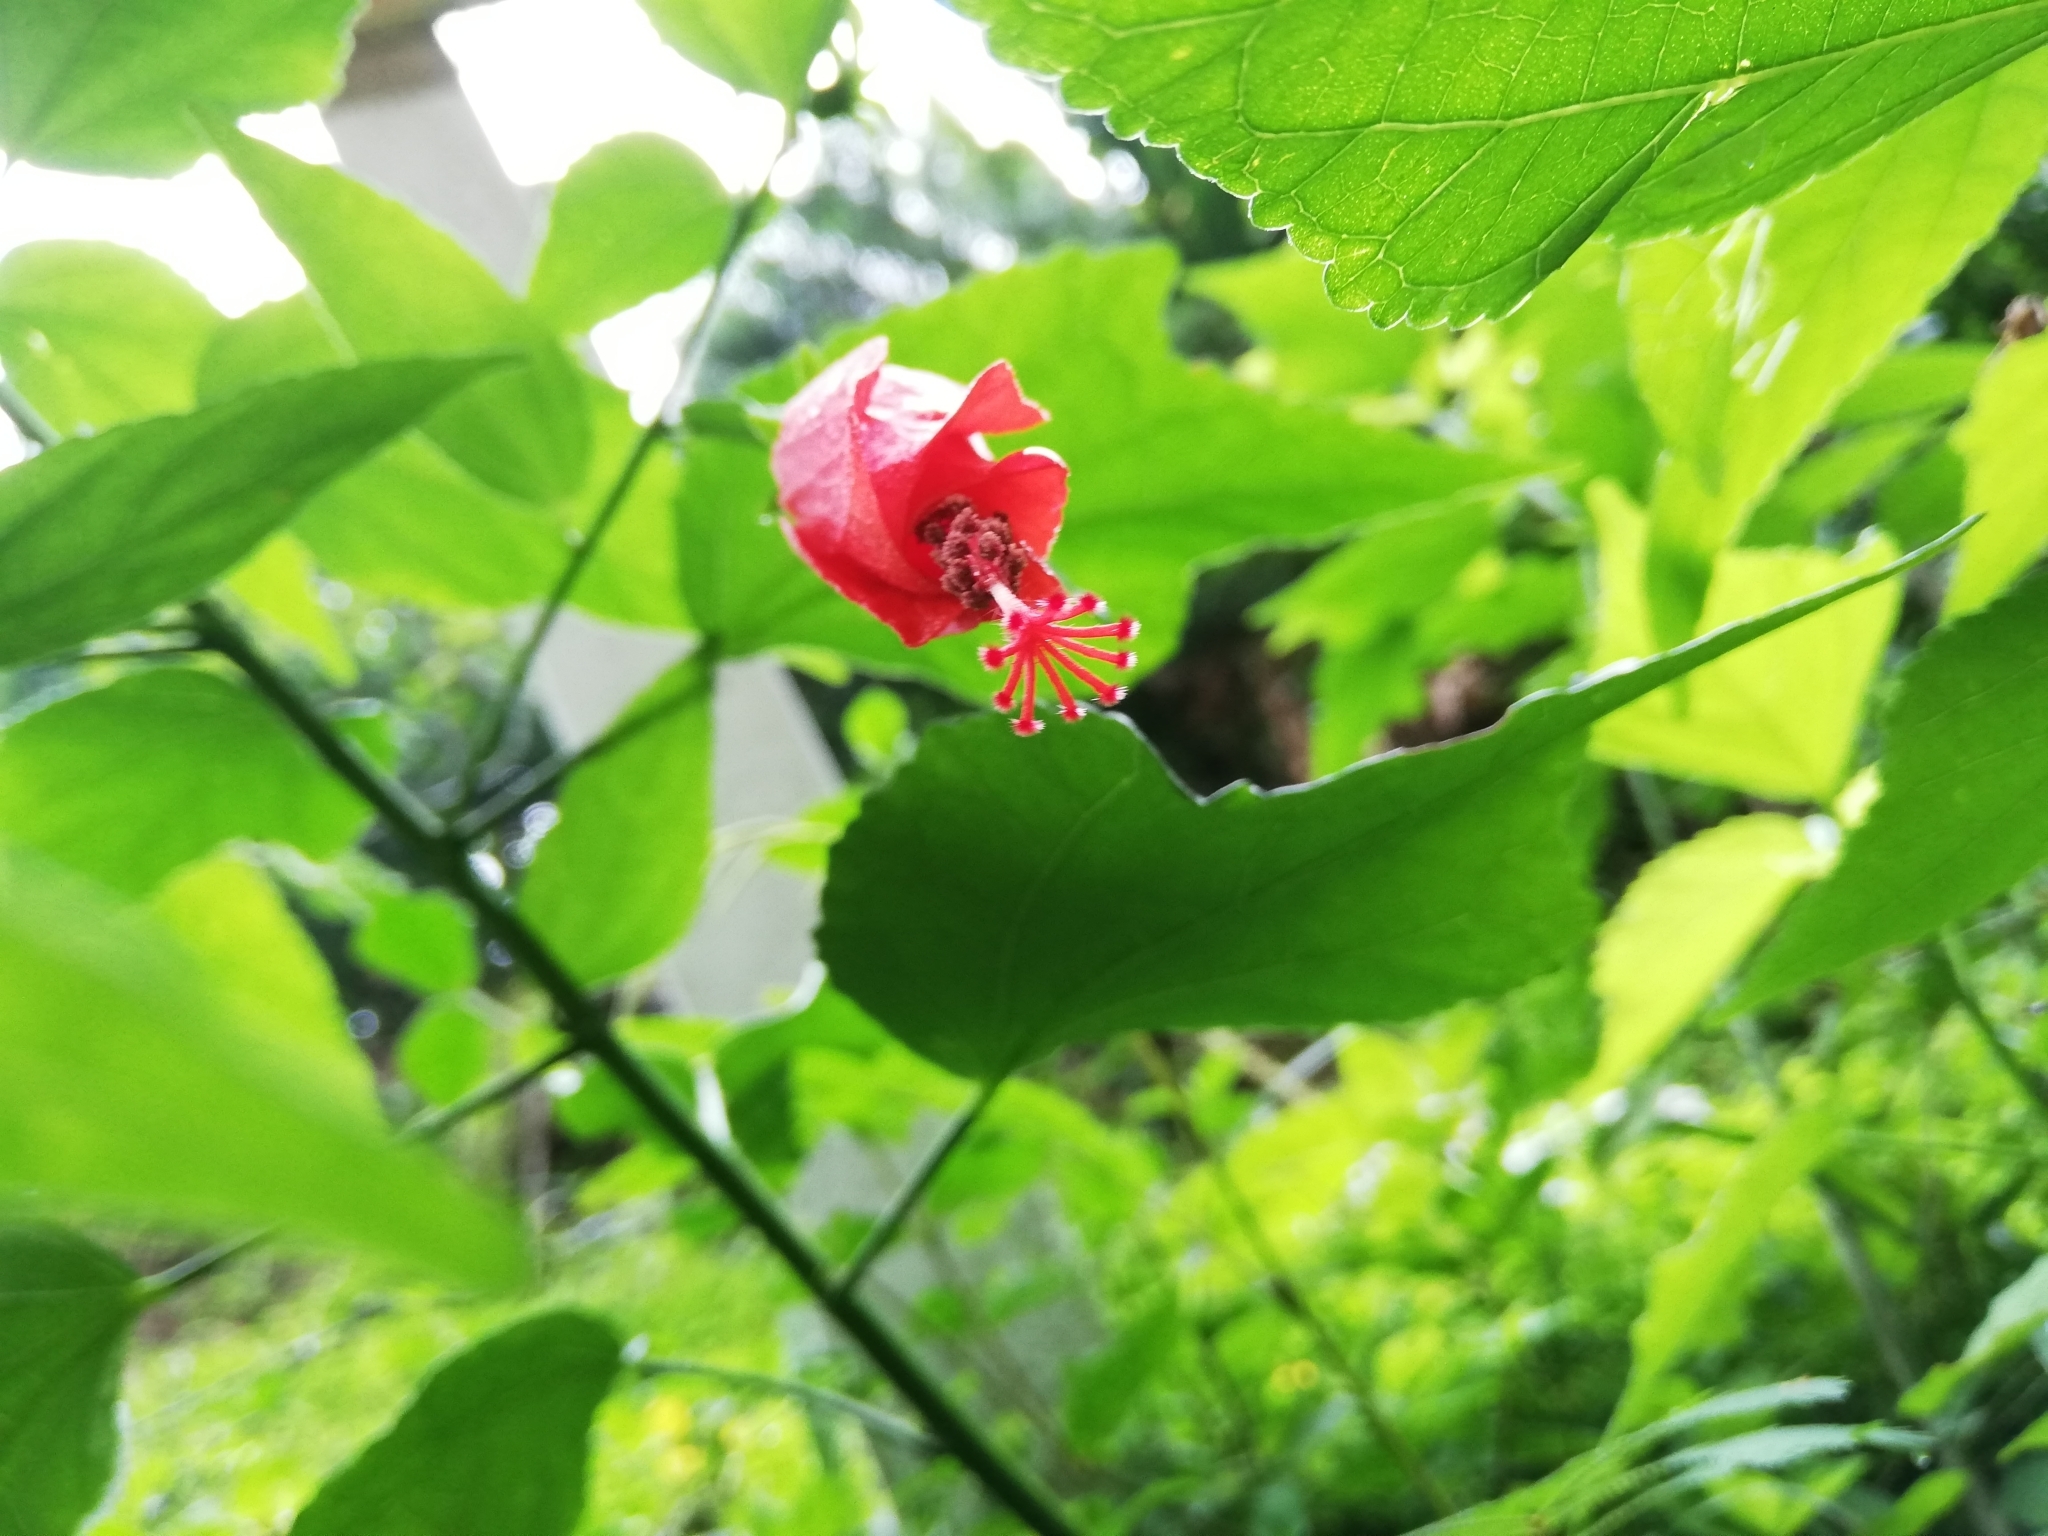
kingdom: Plantae
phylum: Tracheophyta
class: Magnoliopsida
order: Malvales
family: Malvaceae
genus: Malvaviscus
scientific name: Malvaviscus arboreus
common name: Wax mallow
